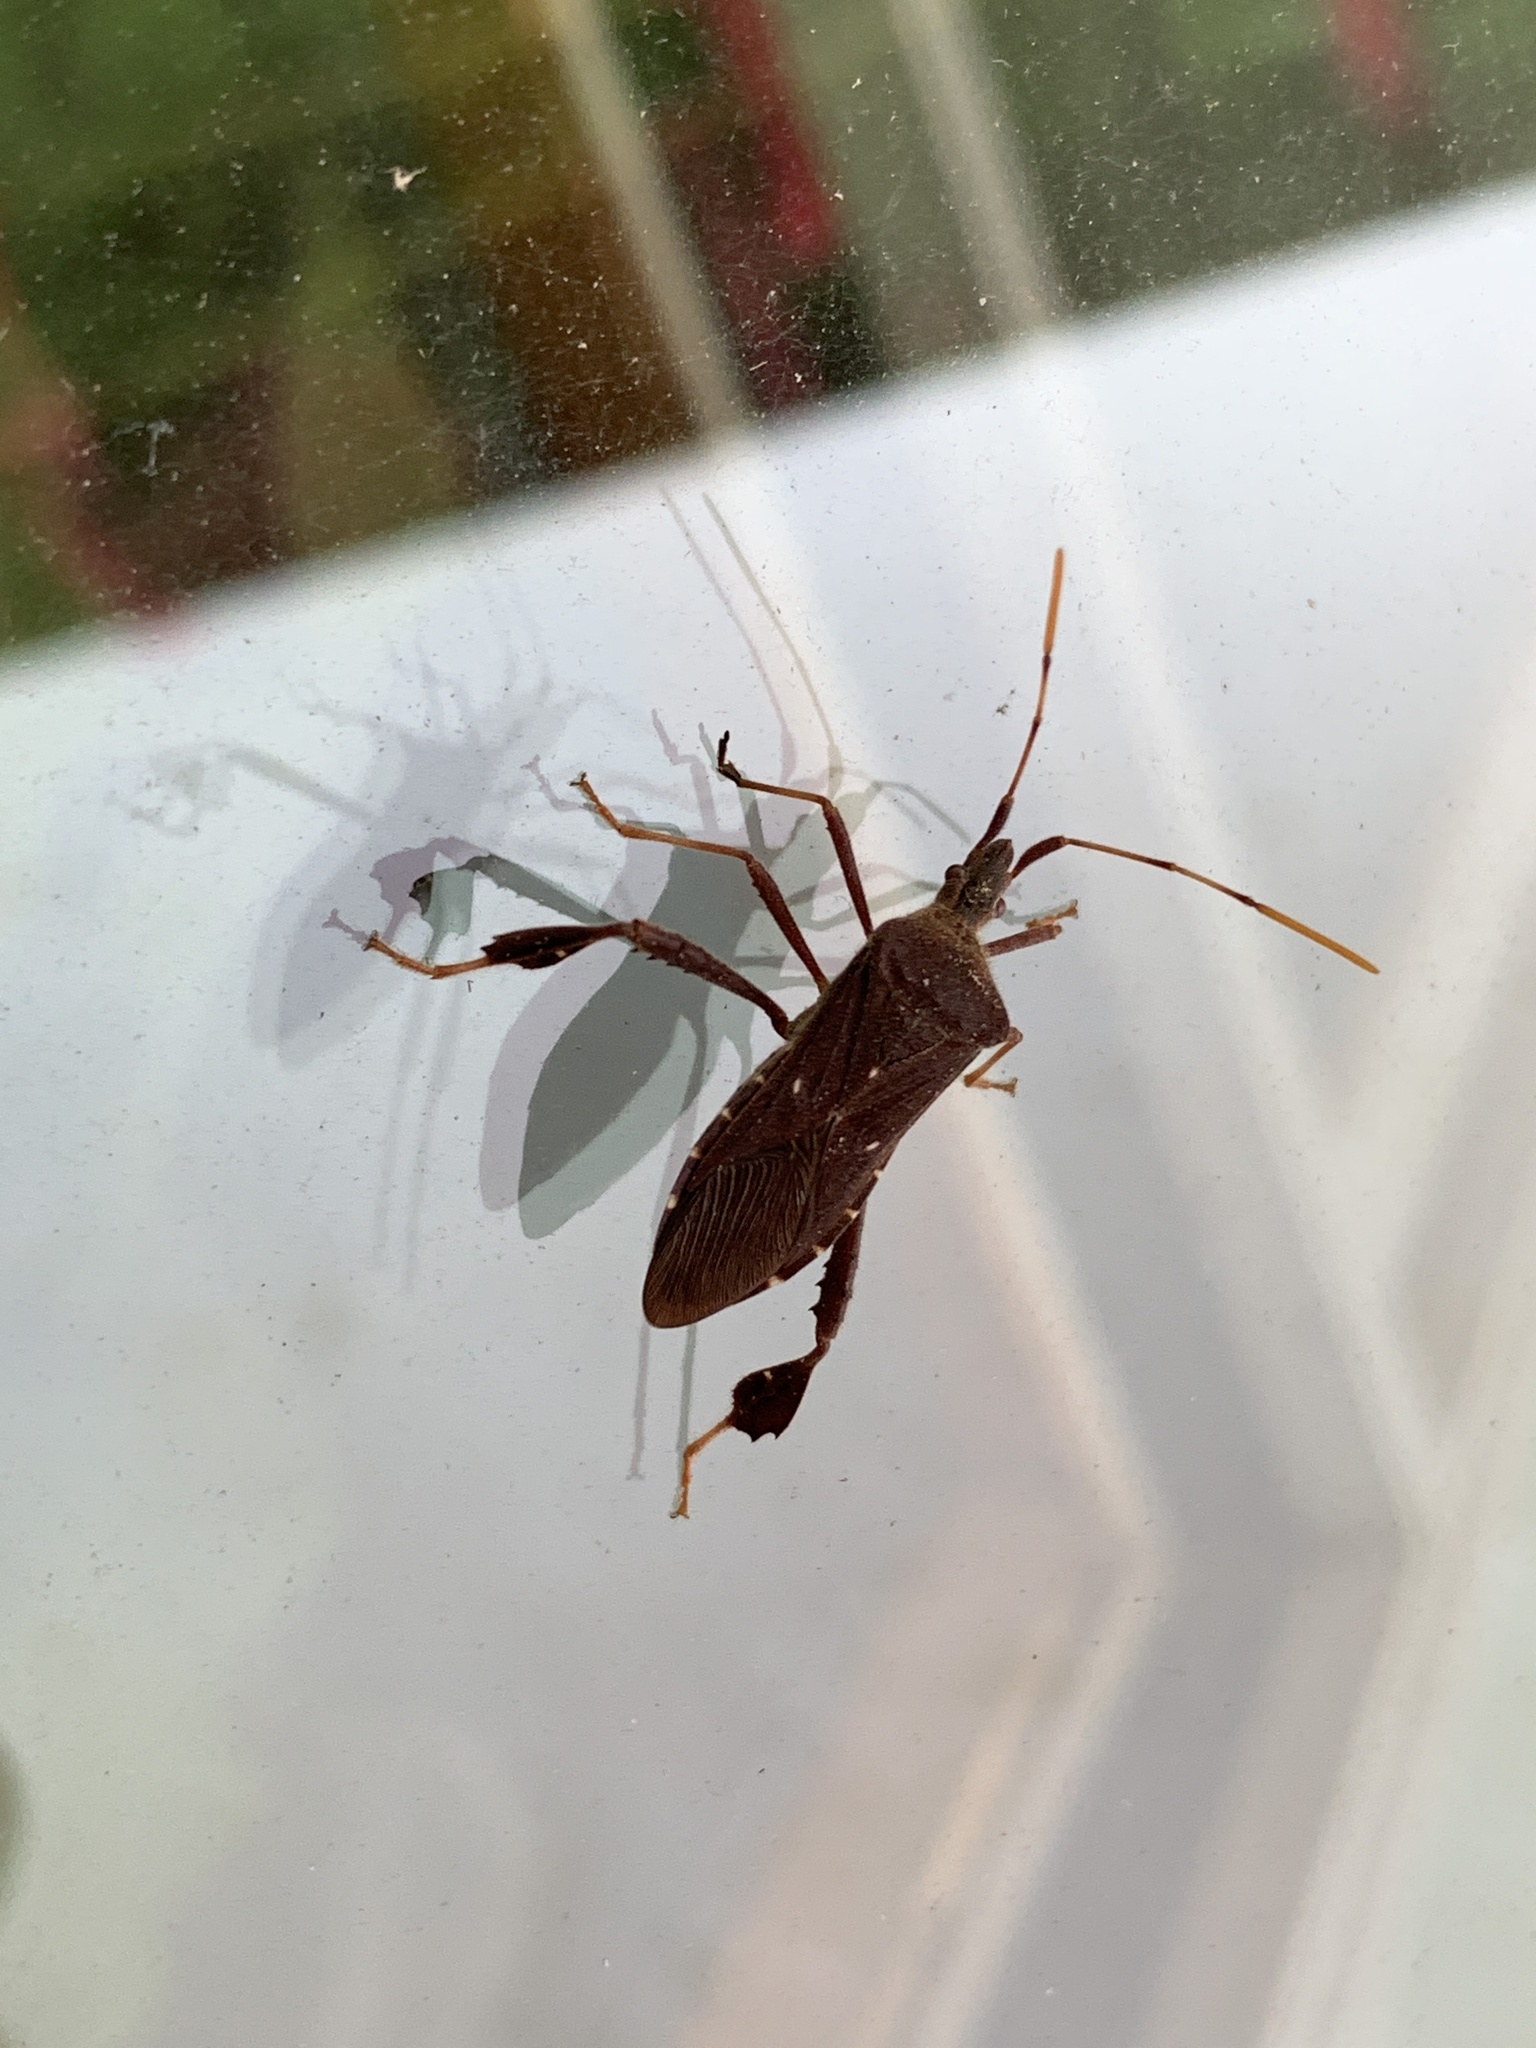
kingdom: Animalia
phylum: Arthropoda
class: Insecta
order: Hemiptera
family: Coreidae
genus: Leptoglossus
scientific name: Leptoglossus oppositus
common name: Northern leaf-footed bug
